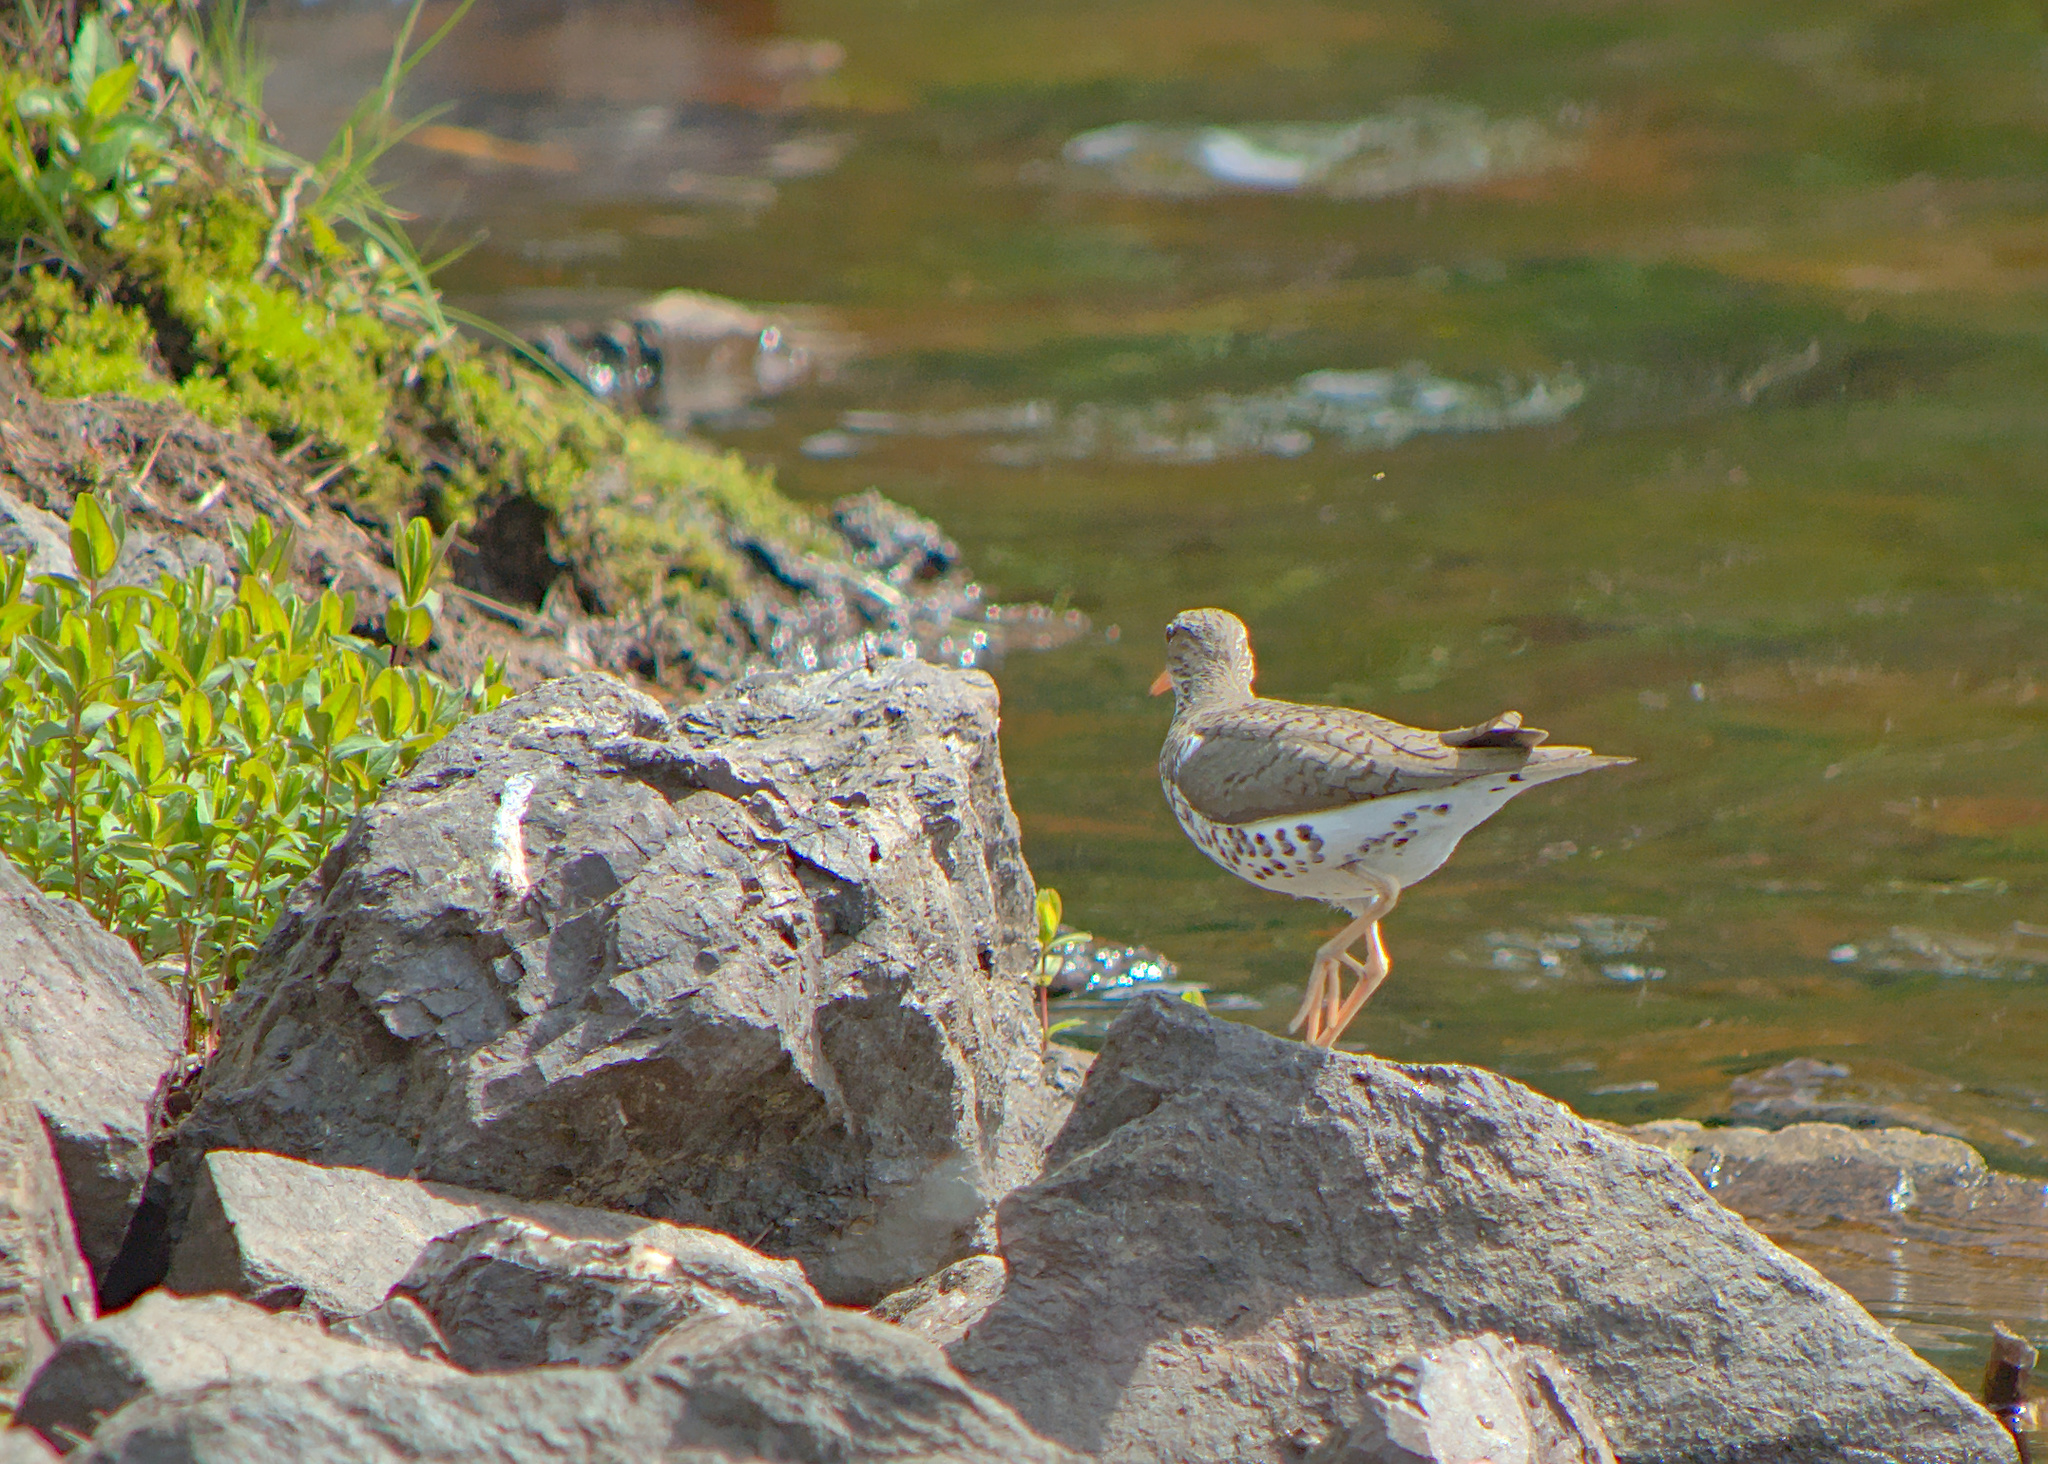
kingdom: Animalia
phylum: Chordata
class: Aves
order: Charadriiformes
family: Scolopacidae
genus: Actitis
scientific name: Actitis macularius
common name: Spotted sandpiper
